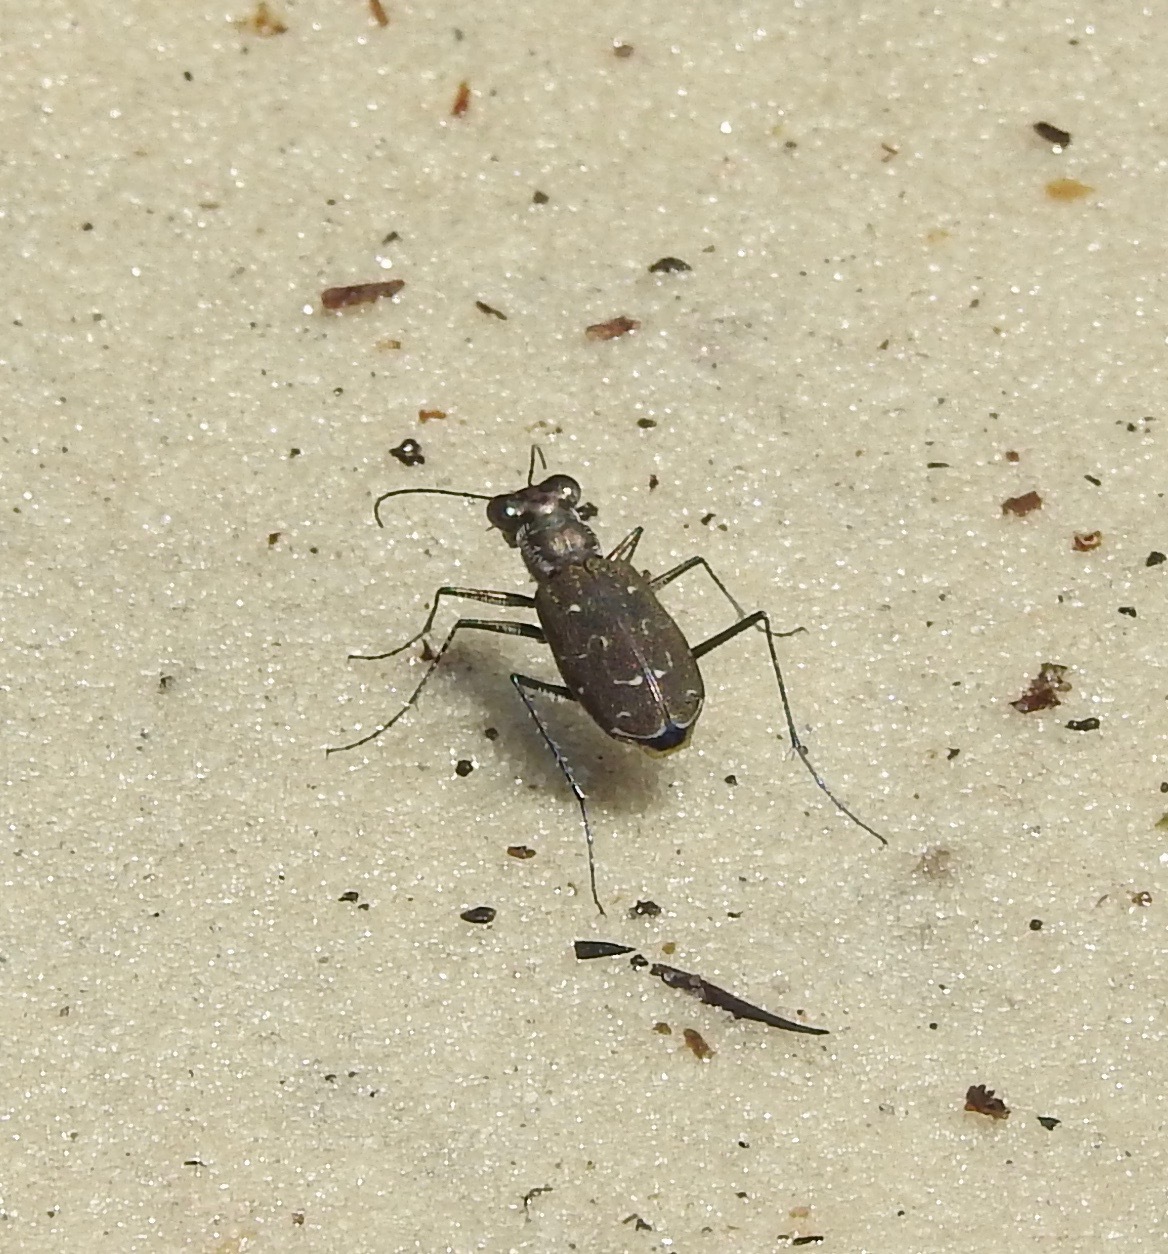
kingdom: Animalia
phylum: Arthropoda
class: Insecta
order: Coleoptera
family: Carabidae
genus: Cicindela
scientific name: Cicindela trifasciata
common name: Mudflat tiger beetle
